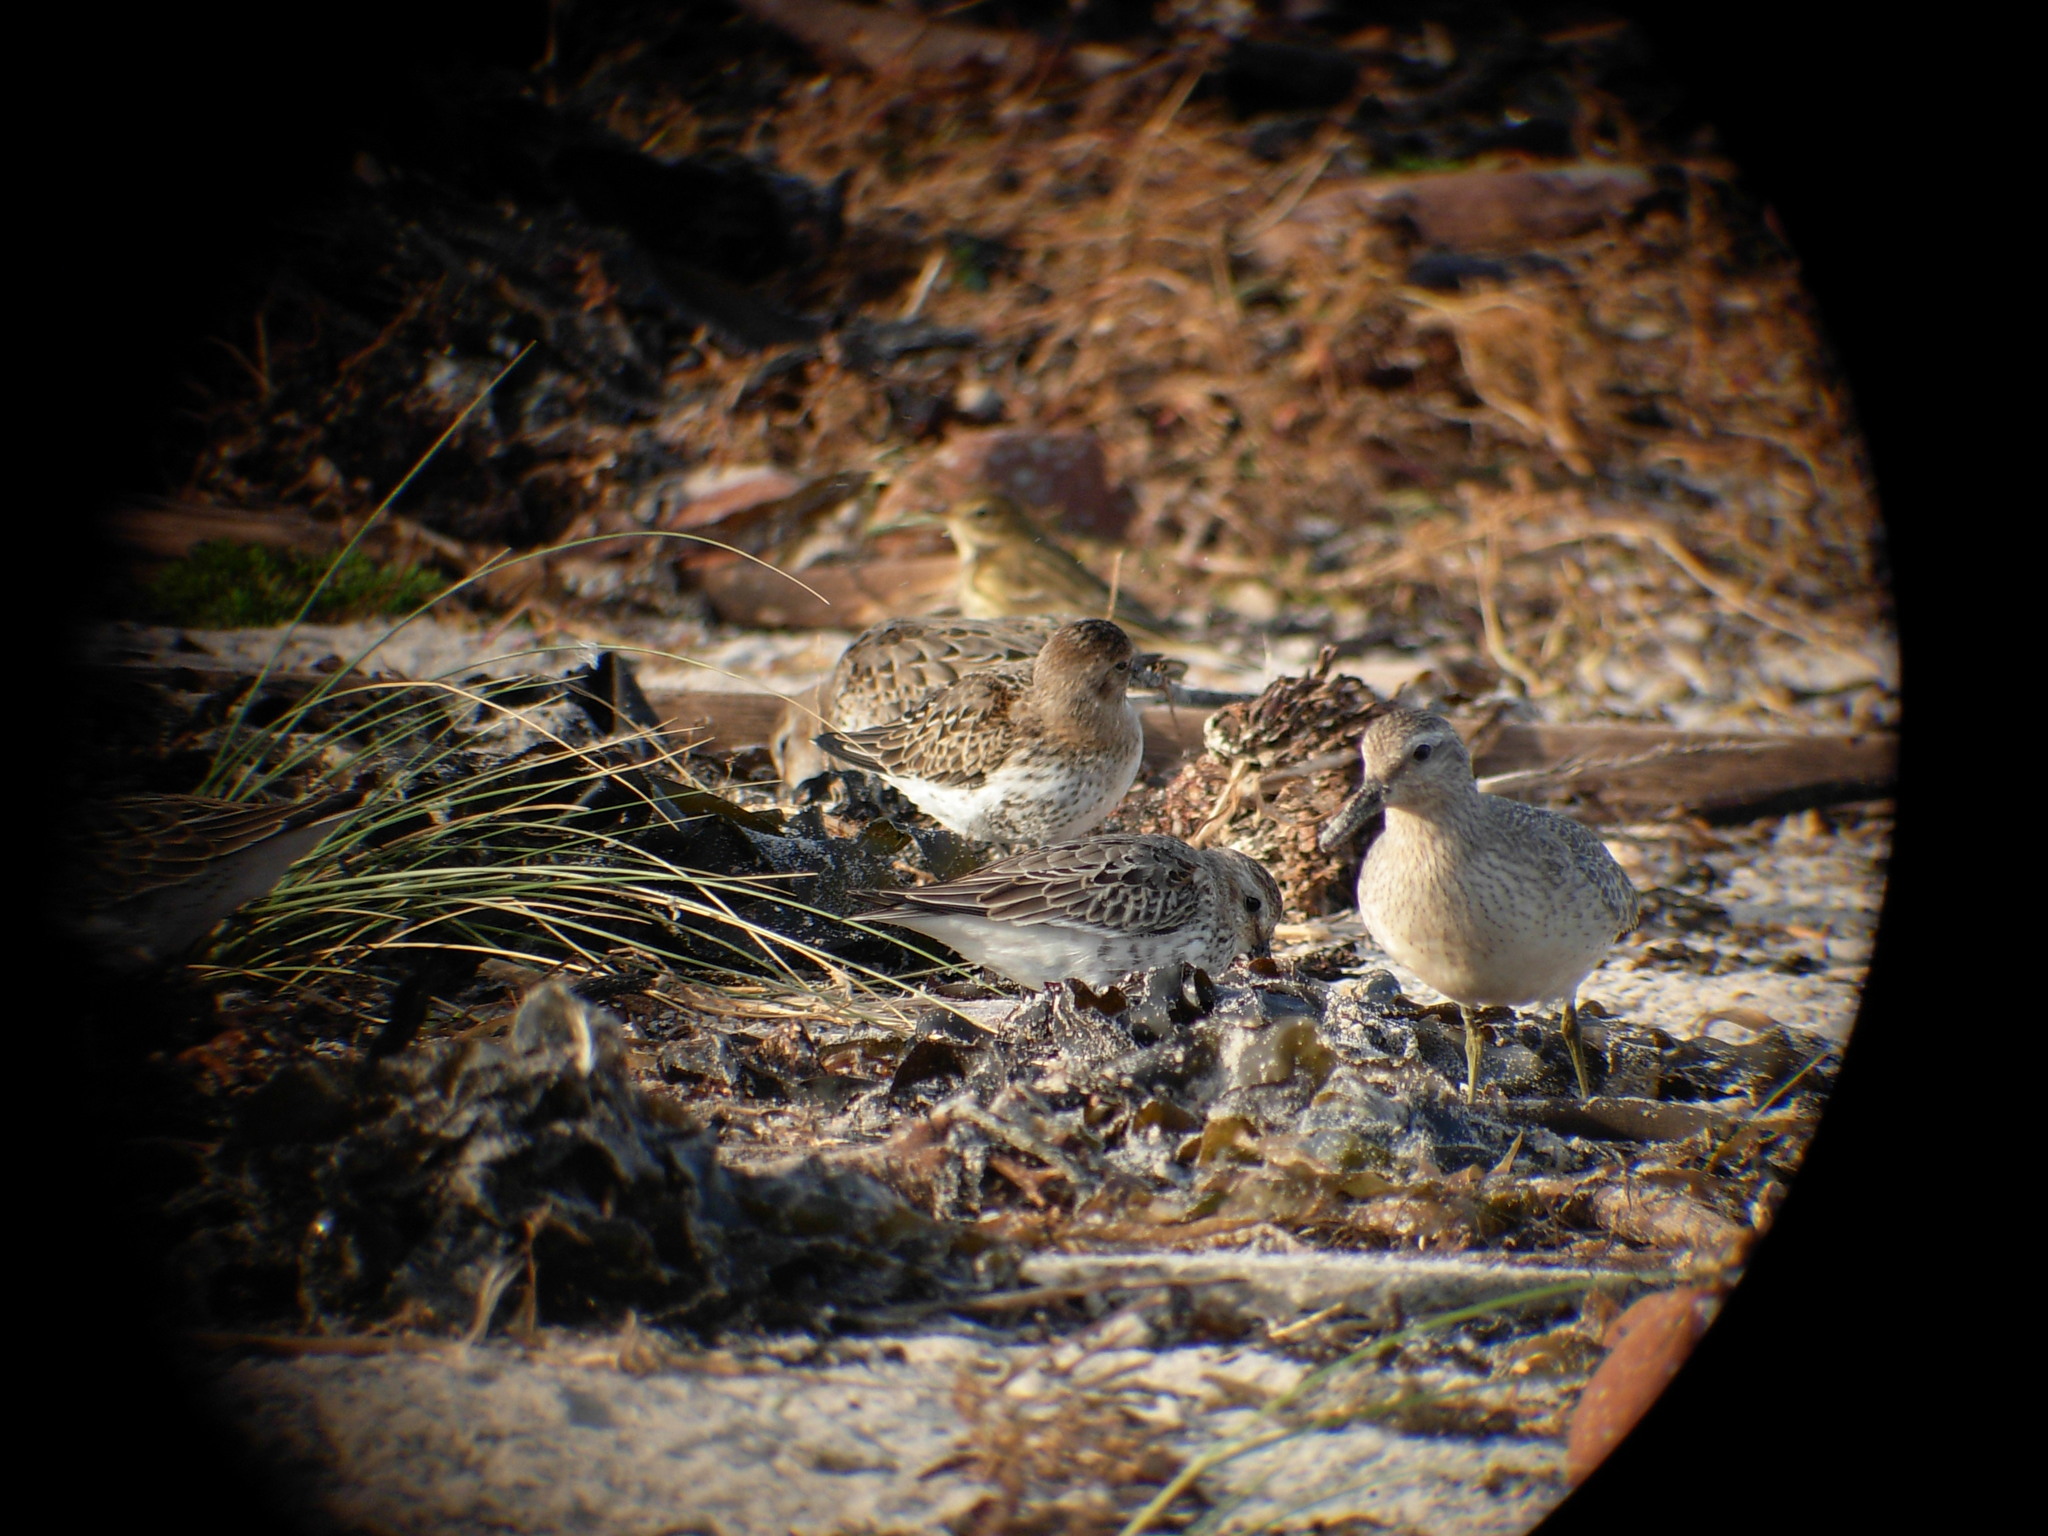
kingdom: Animalia
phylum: Chordata
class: Aves
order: Charadriiformes
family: Scolopacidae
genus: Calidris
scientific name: Calidris canutus
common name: Red knot
